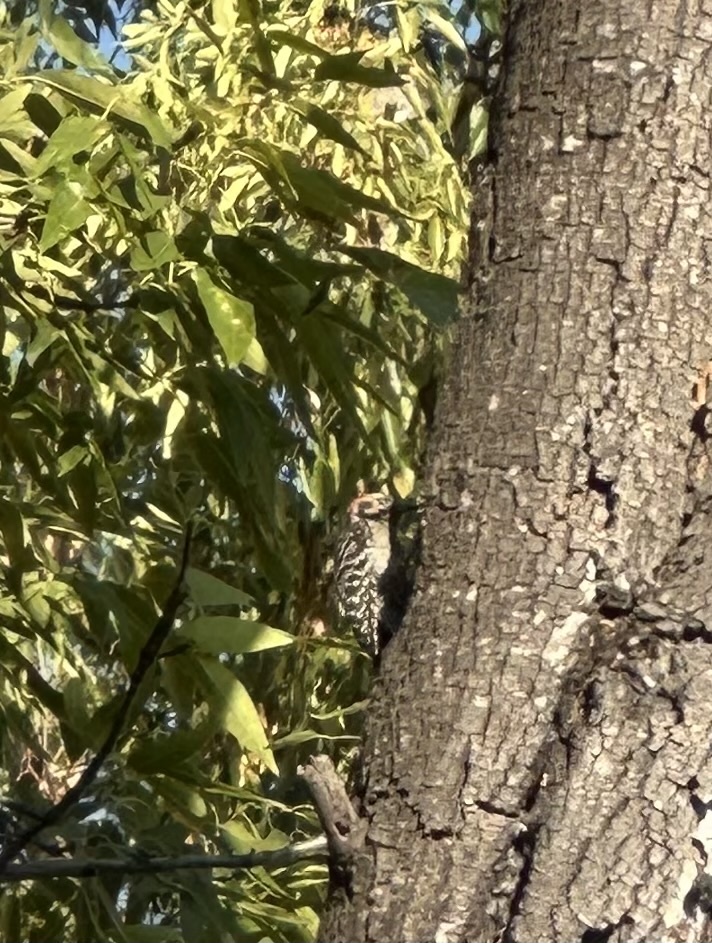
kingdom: Animalia
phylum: Chordata
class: Aves
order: Piciformes
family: Picidae
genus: Dryobates
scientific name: Dryobates scalaris
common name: Ladder-backed woodpecker
